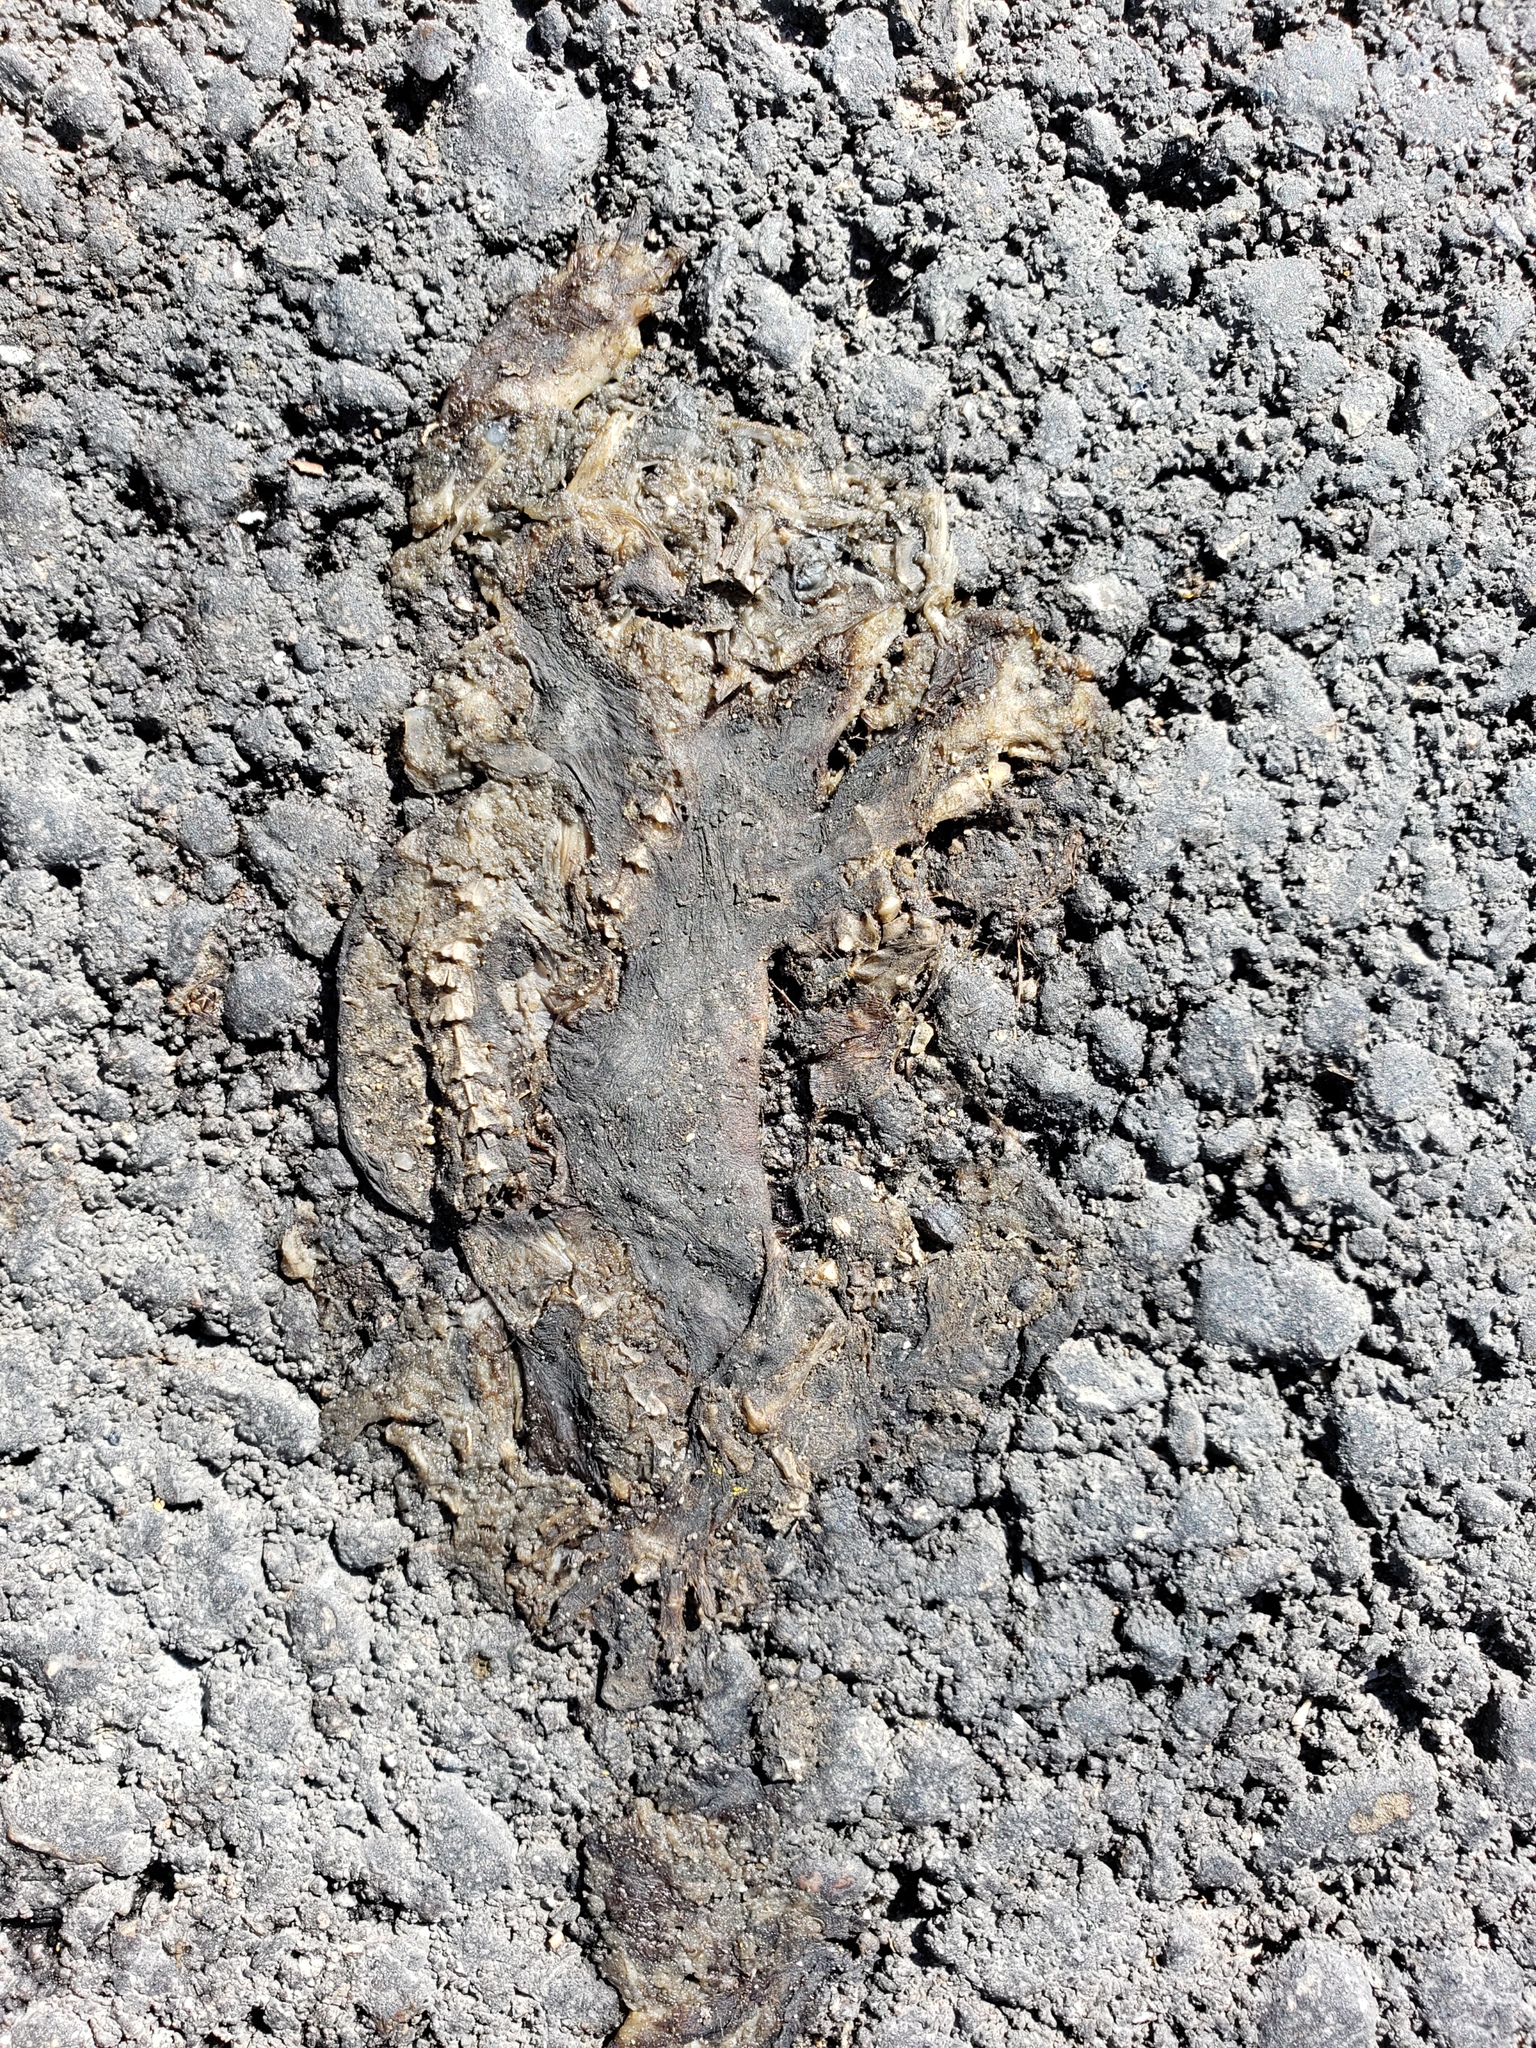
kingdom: Animalia
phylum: Chordata
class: Amphibia
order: Caudata
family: Salamandridae
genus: Taricha
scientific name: Taricha
